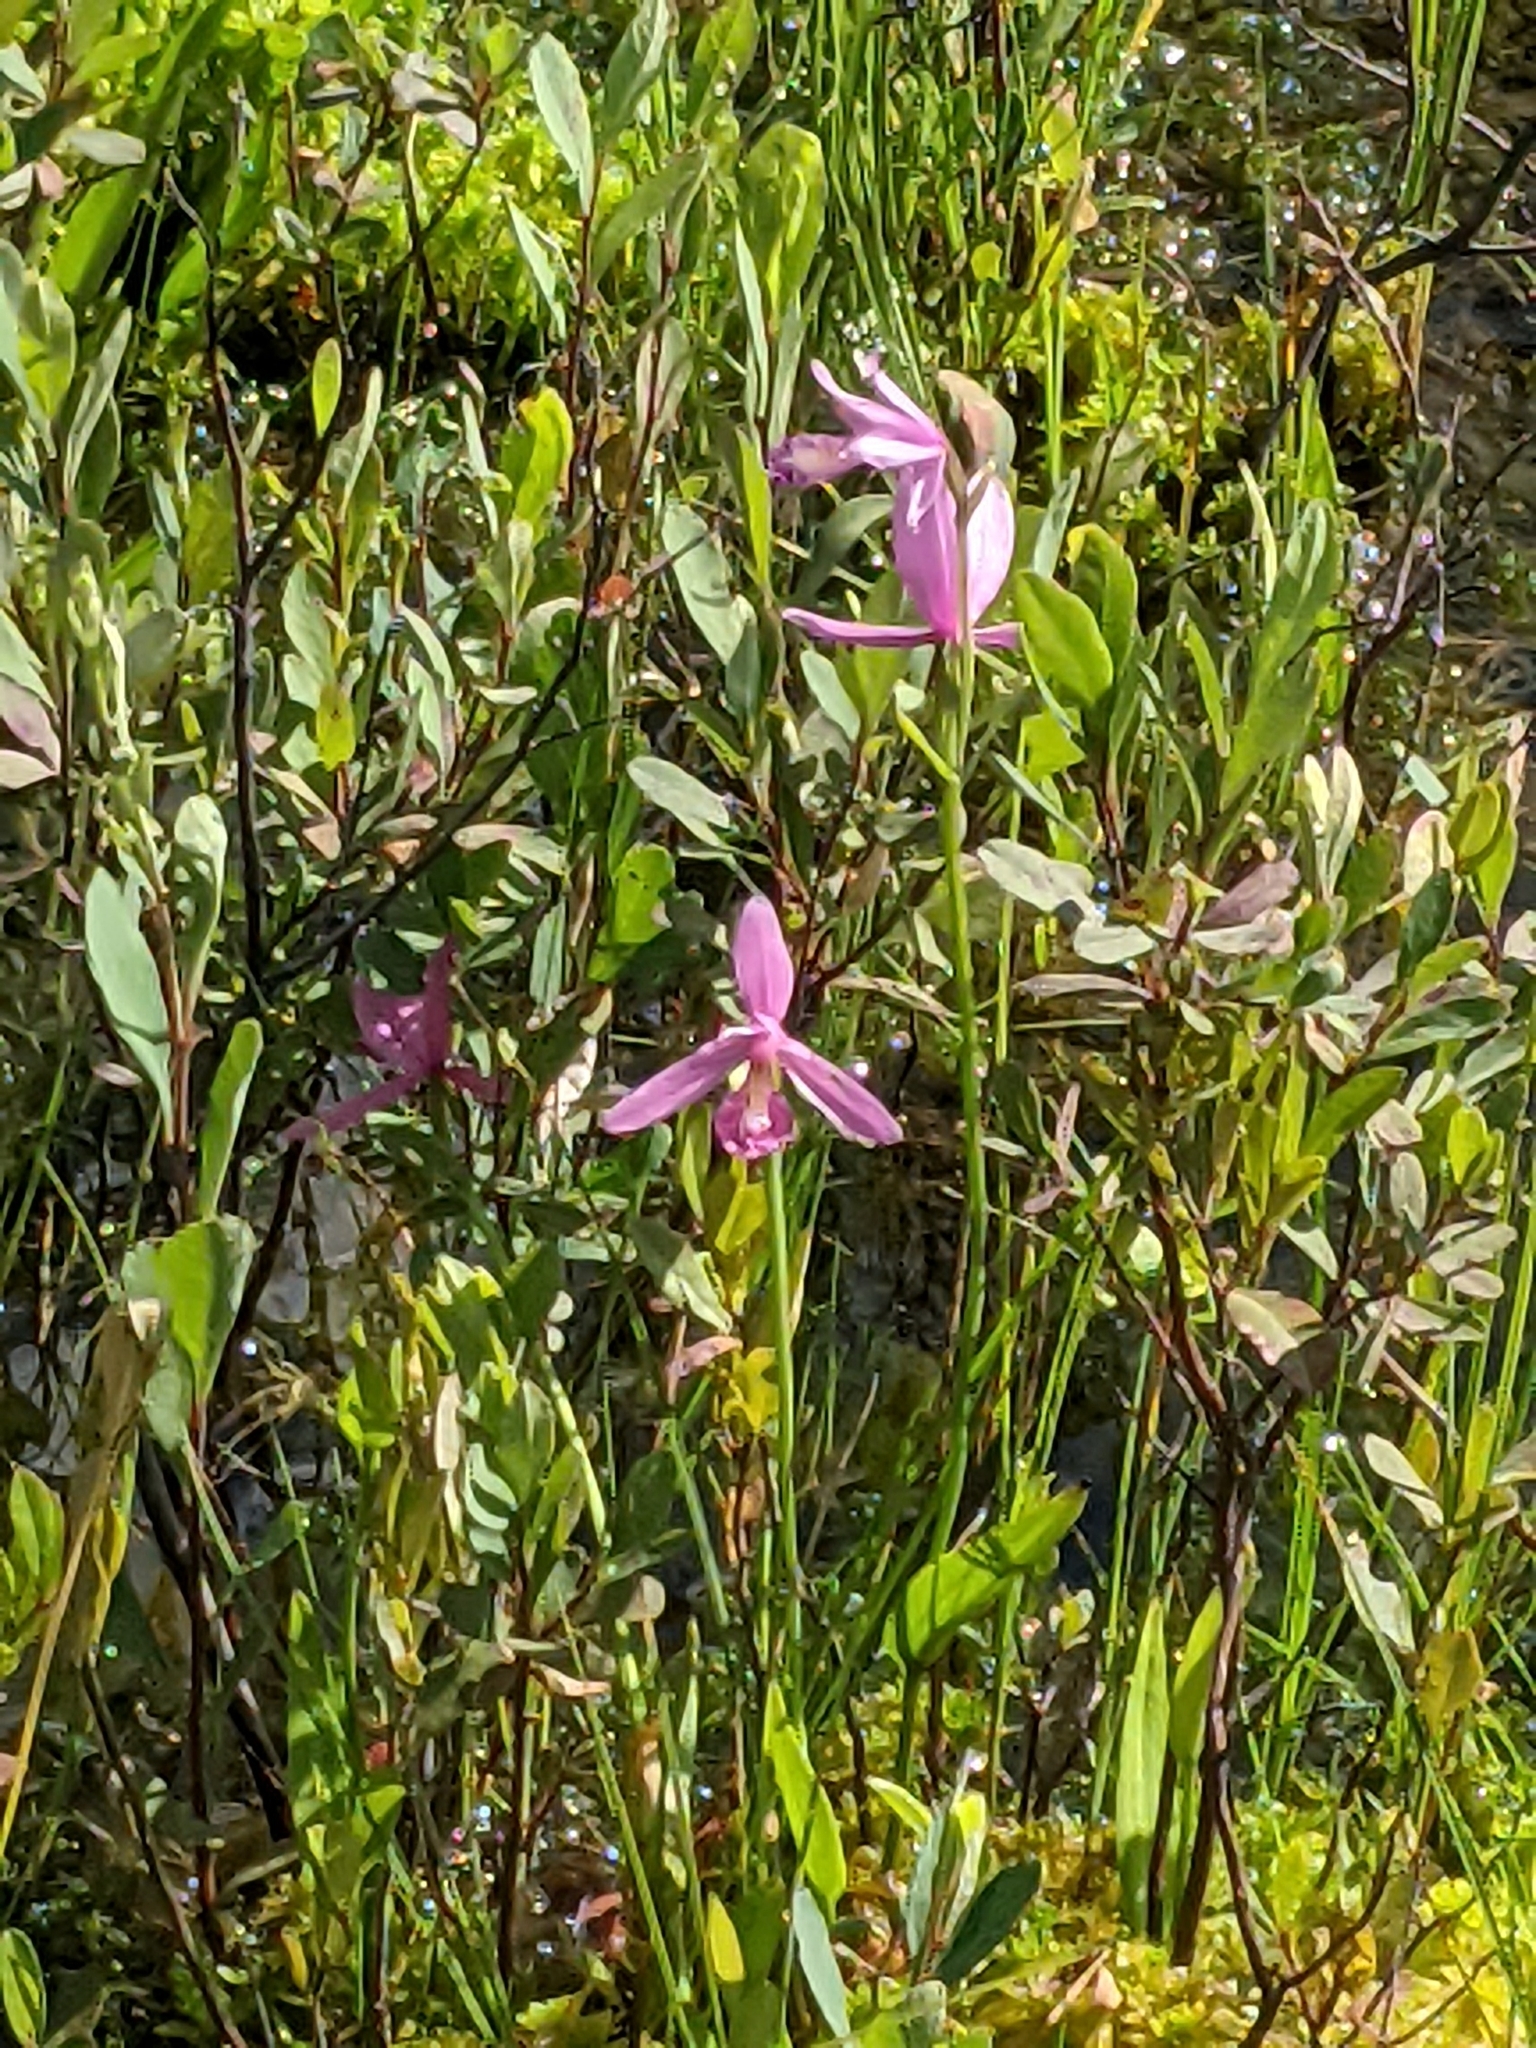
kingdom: Plantae
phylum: Tracheophyta
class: Liliopsida
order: Asparagales
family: Orchidaceae
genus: Pogonia
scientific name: Pogonia ophioglossoides
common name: Rose pogonia
